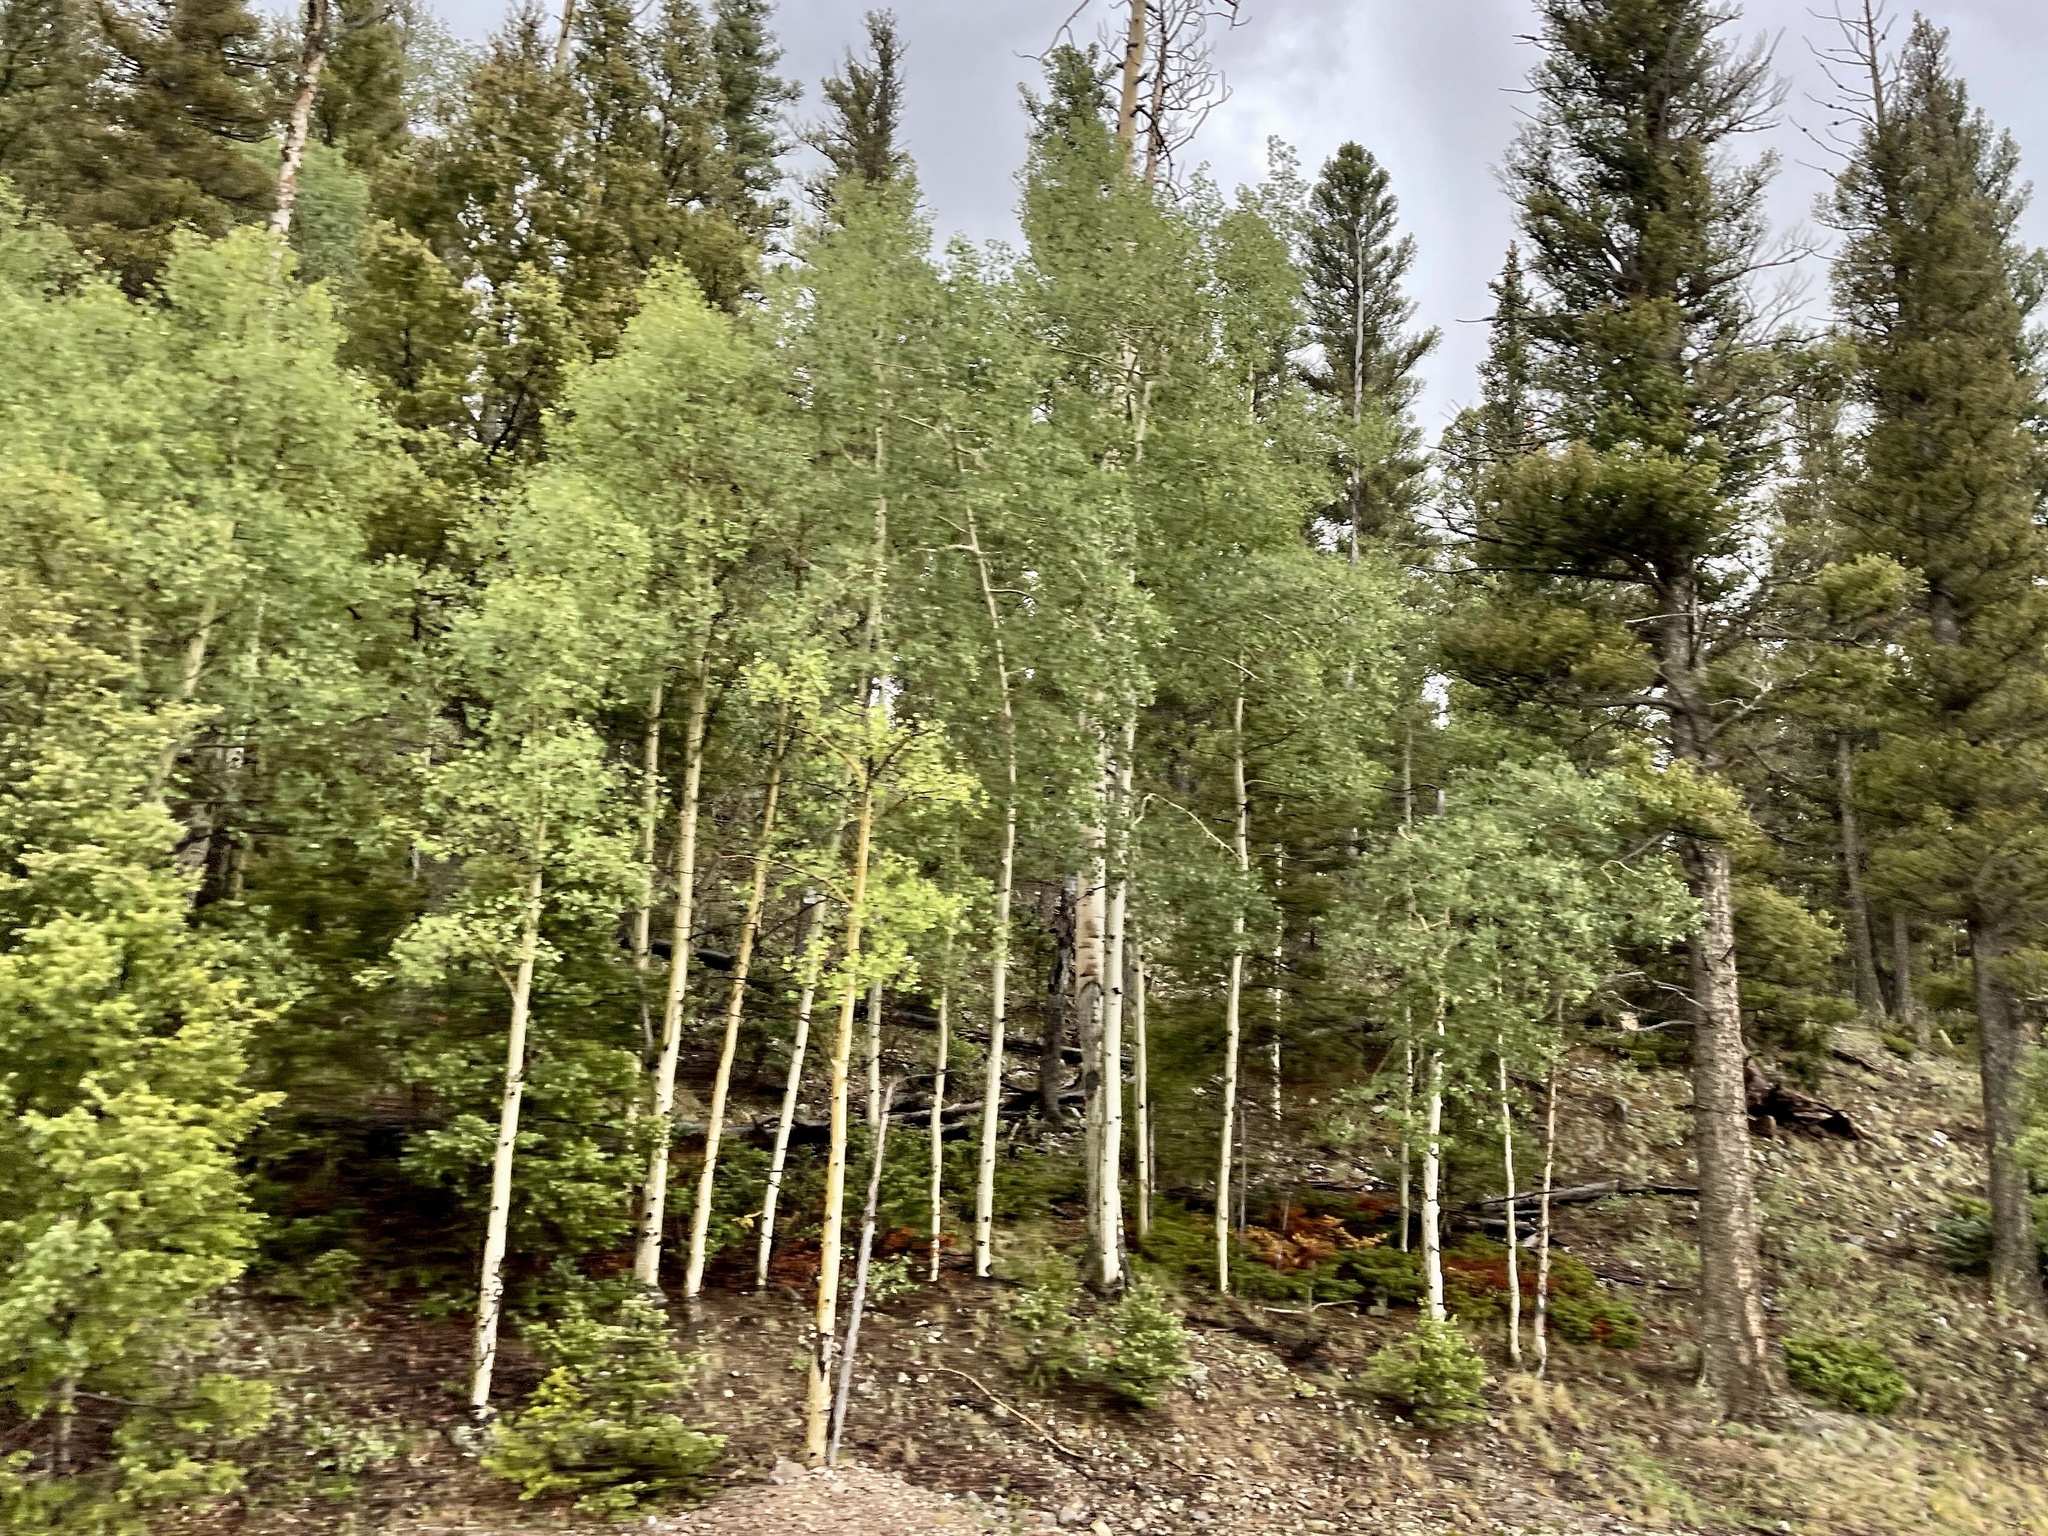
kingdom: Plantae
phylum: Tracheophyta
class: Magnoliopsida
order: Malpighiales
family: Salicaceae
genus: Populus
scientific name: Populus tremuloides
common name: Quaking aspen
